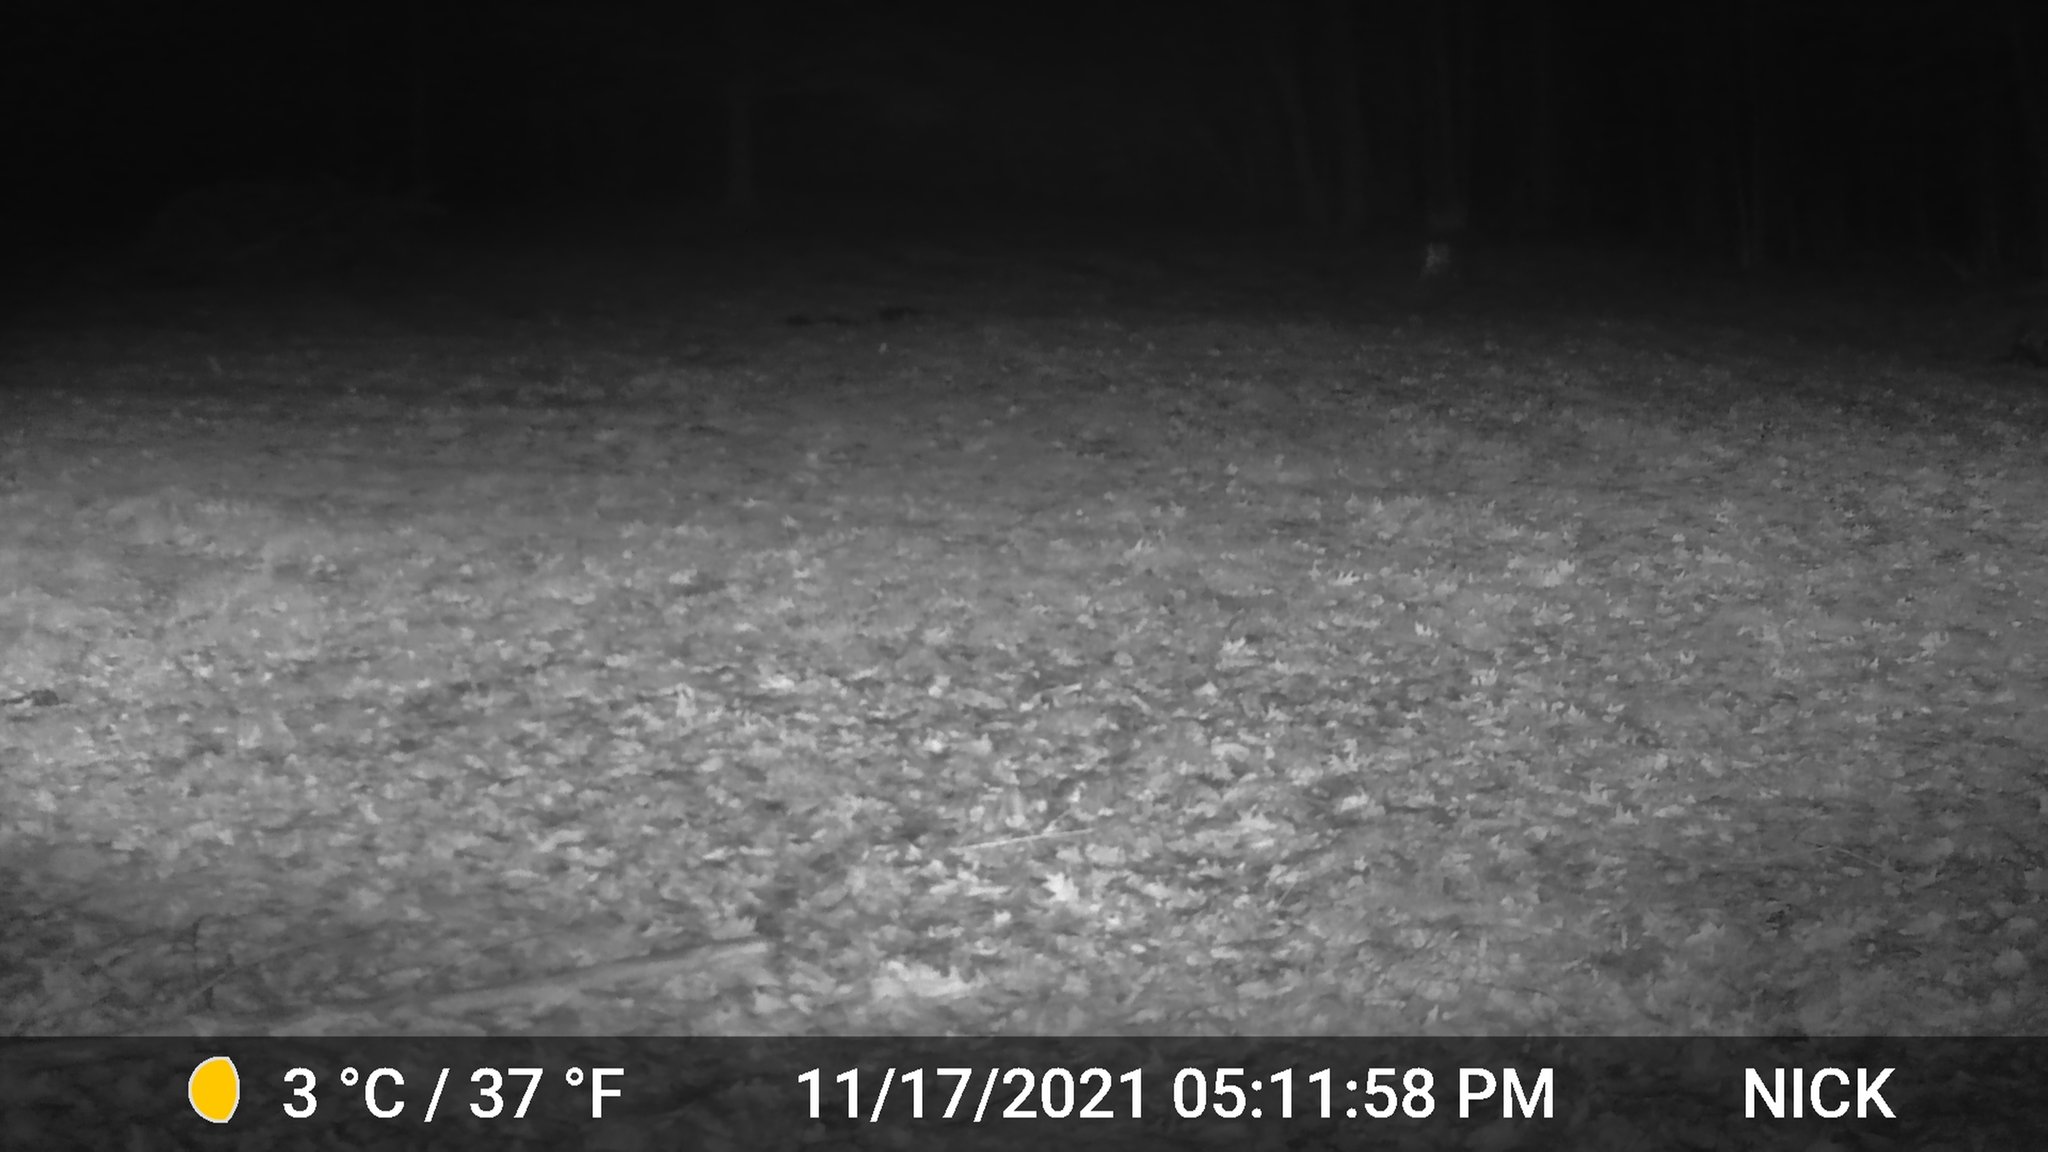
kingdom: Animalia
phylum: Chordata
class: Mammalia
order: Artiodactyla
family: Cervidae
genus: Odocoileus
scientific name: Odocoileus virginianus
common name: White-tailed deer
